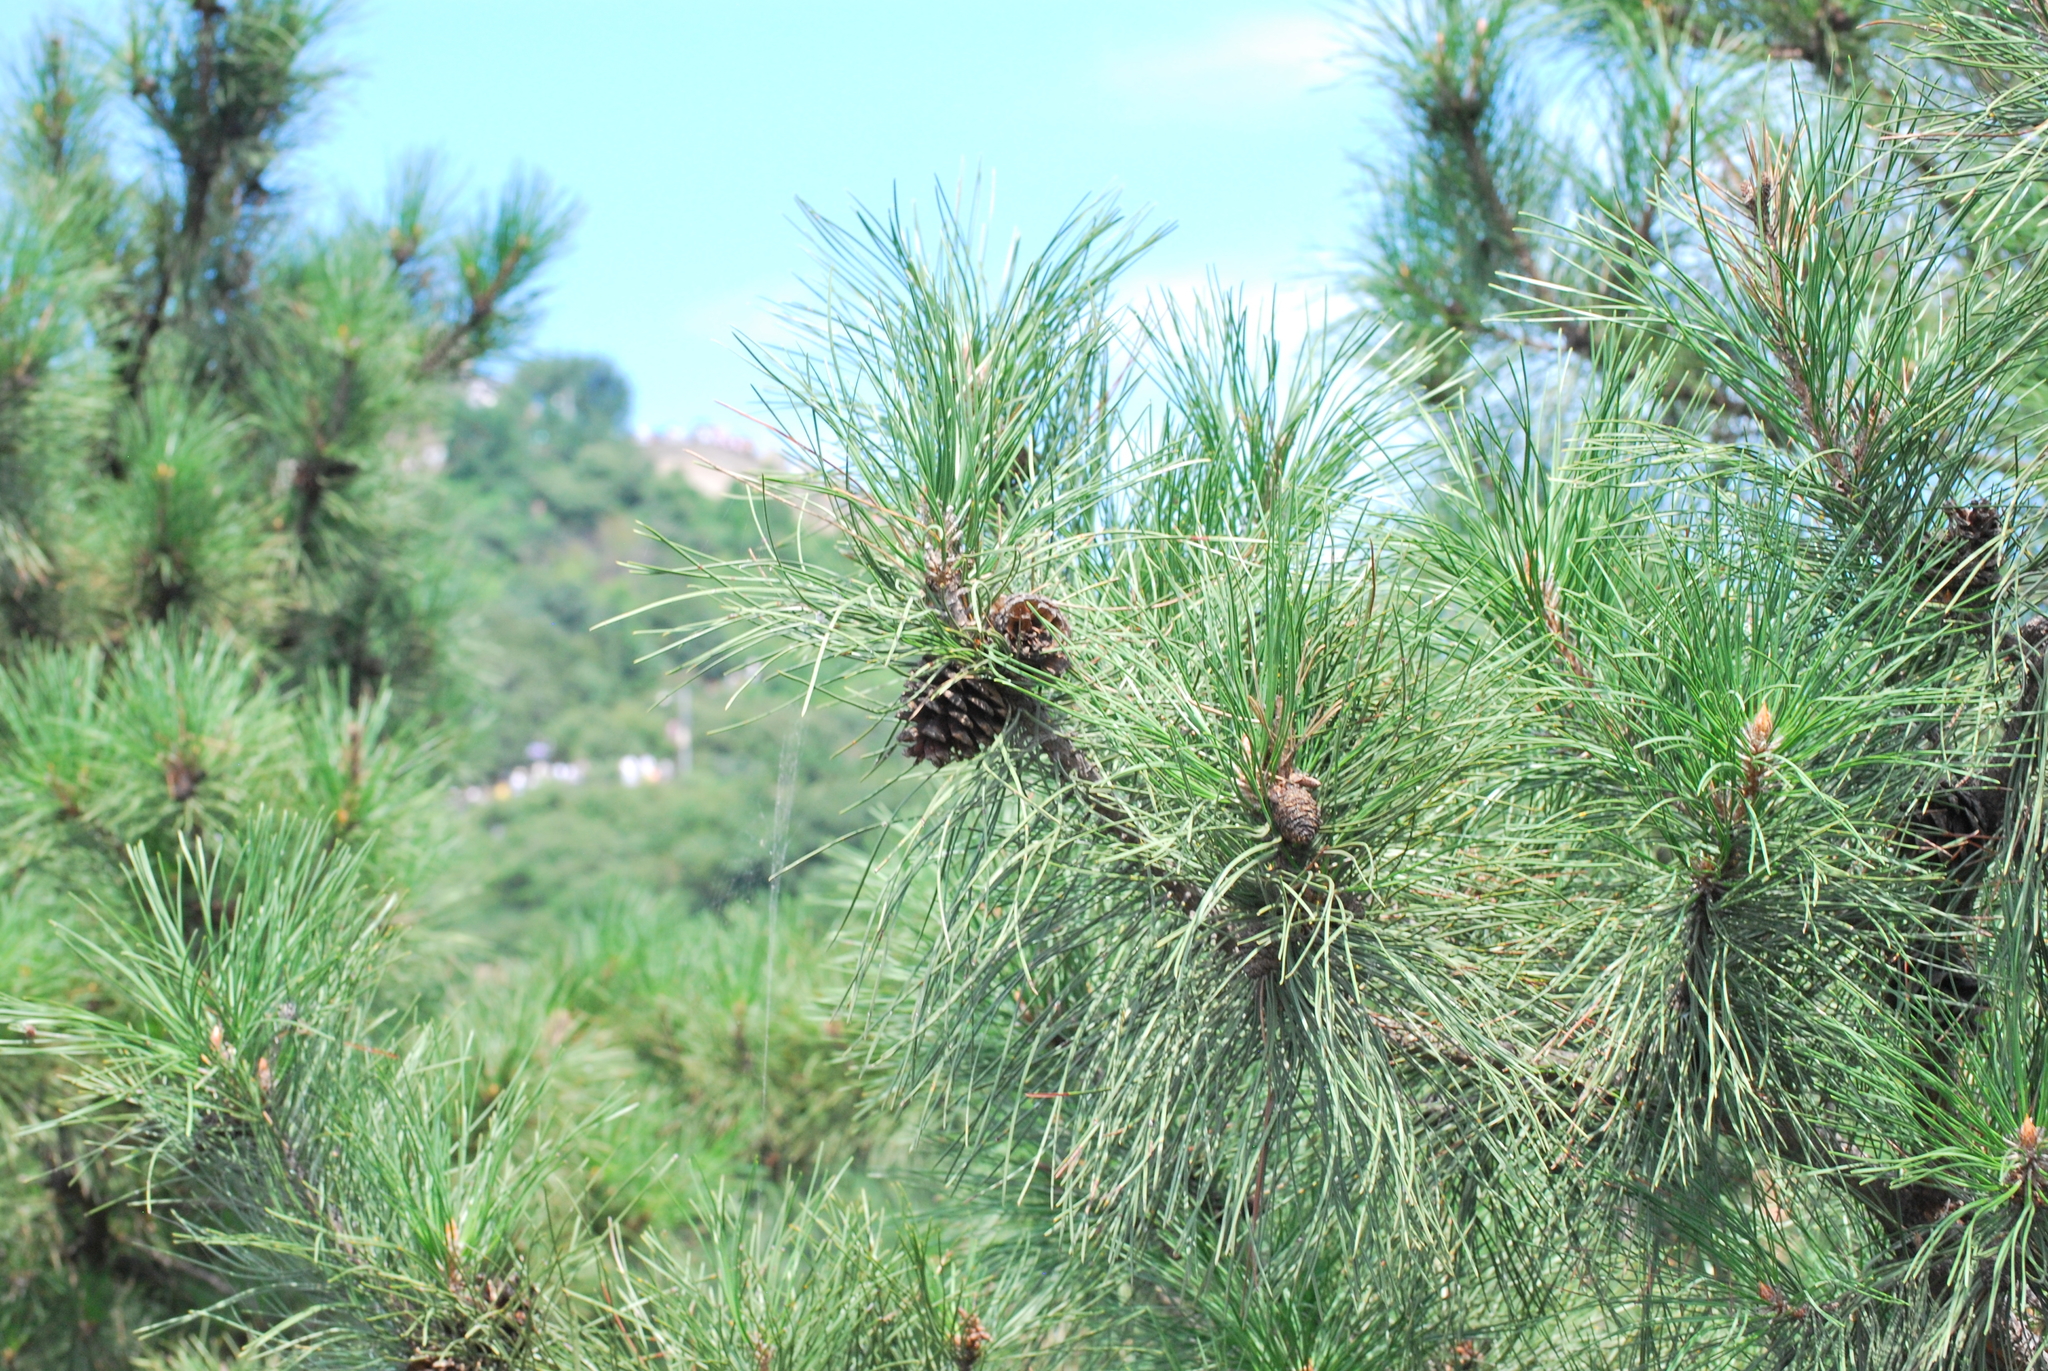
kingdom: Plantae
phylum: Tracheophyta
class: Pinopsida
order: Pinales
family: Pinaceae
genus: Pinus
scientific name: Pinus tabuliformis
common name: Chinese red pine
